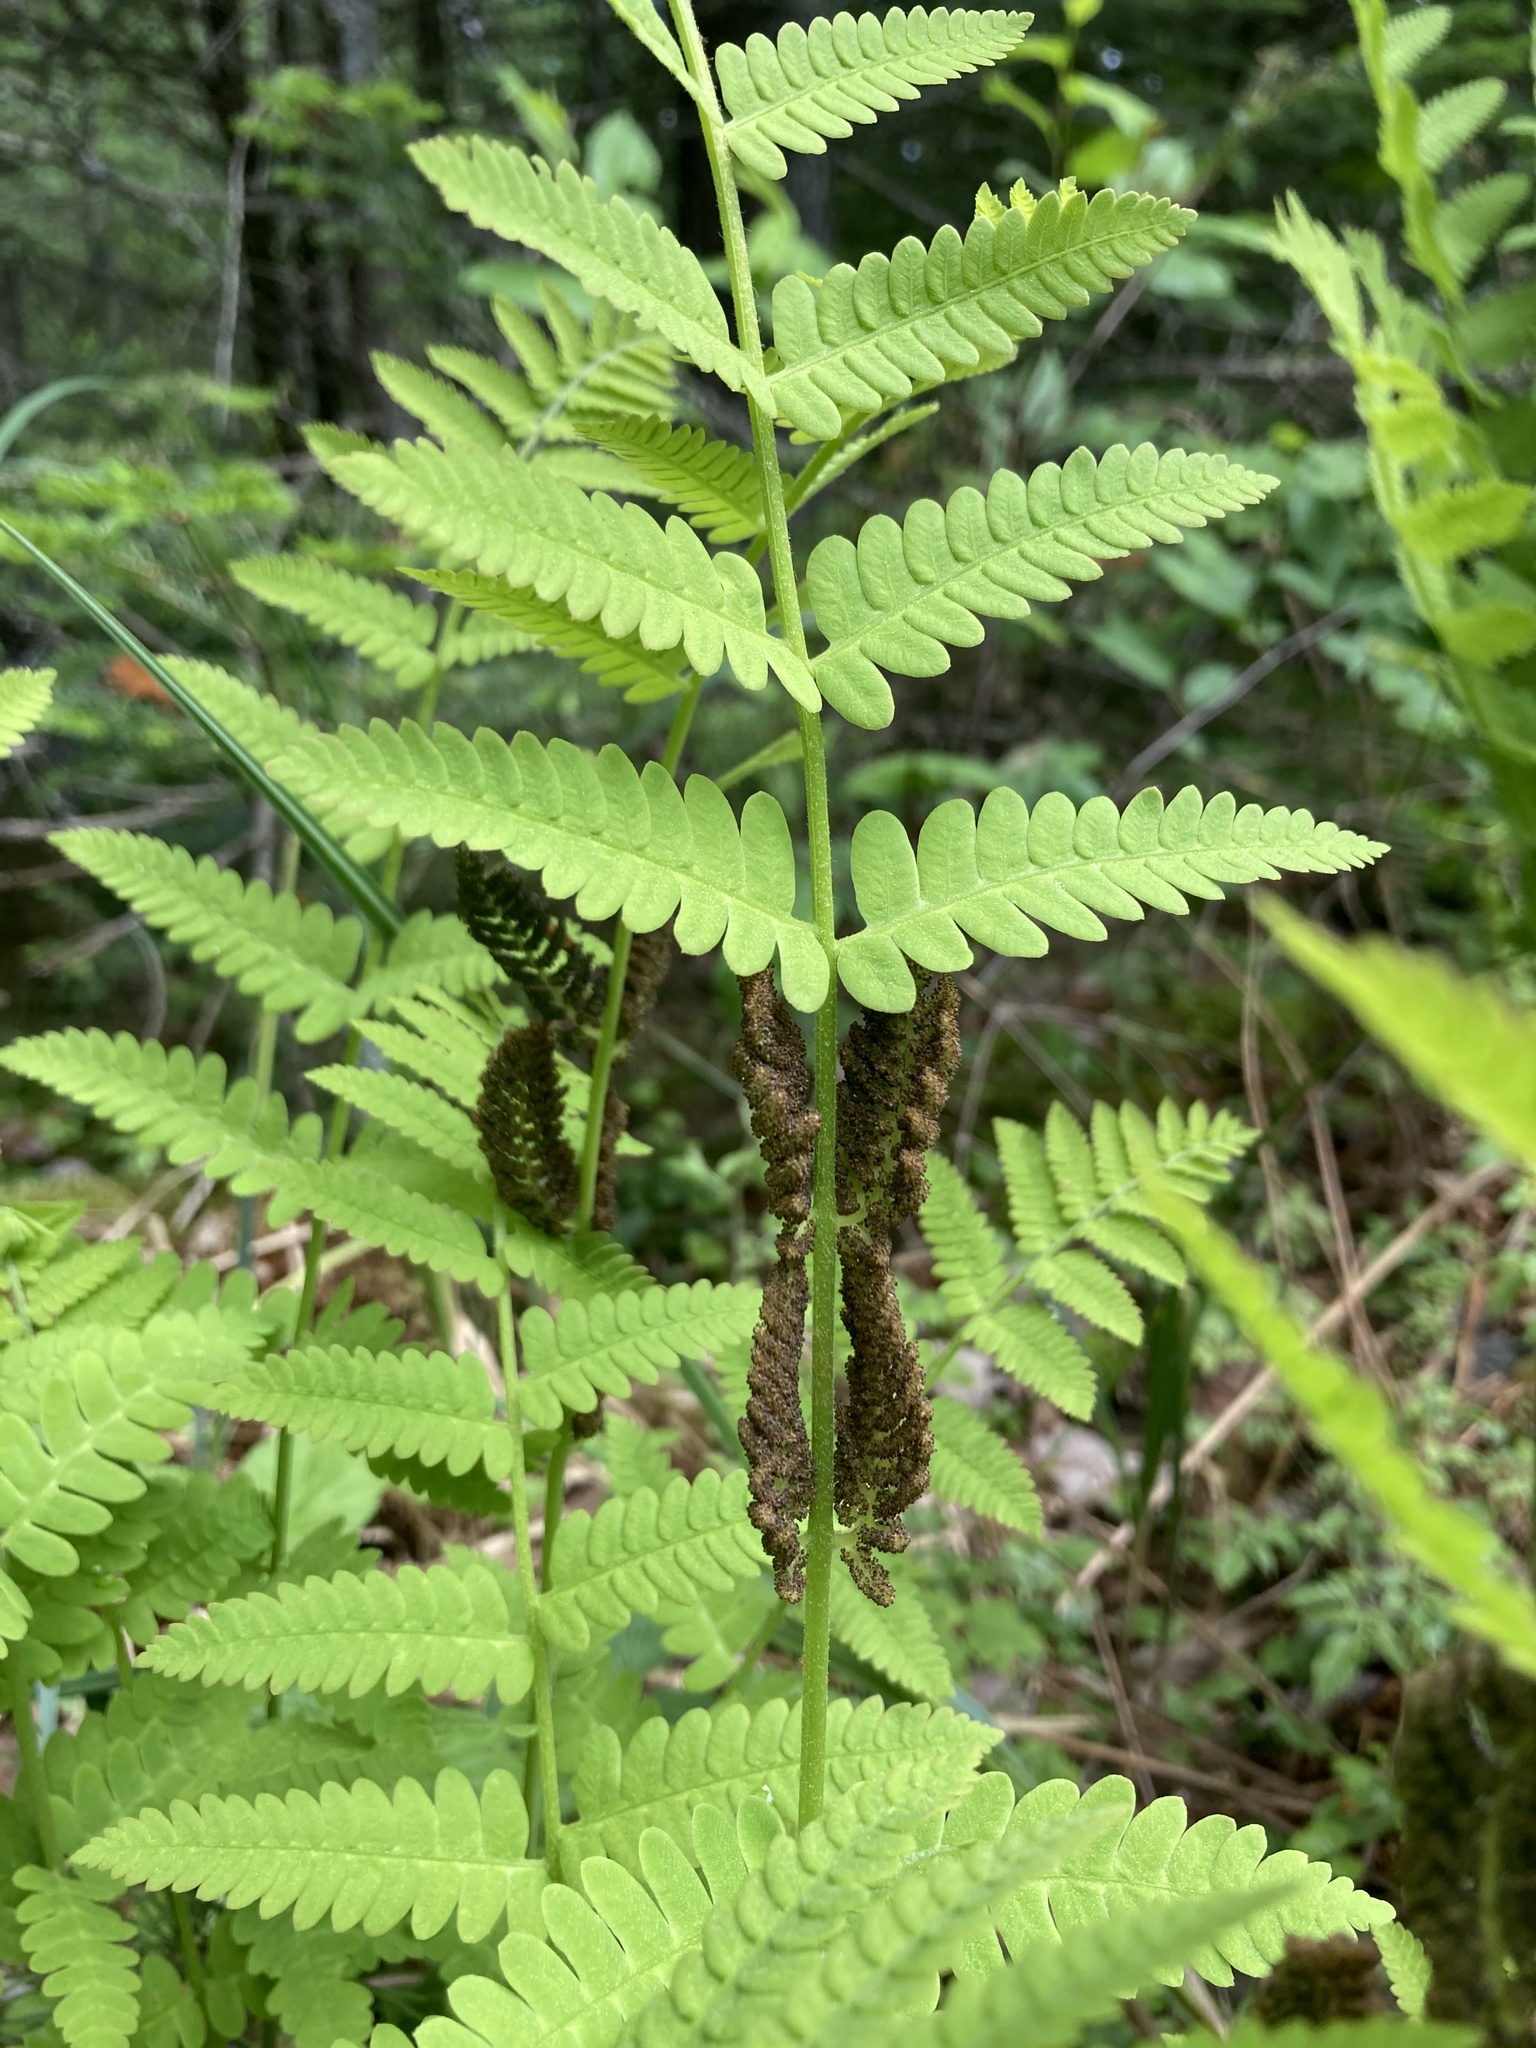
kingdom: Plantae
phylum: Tracheophyta
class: Polypodiopsida
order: Osmundales
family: Osmundaceae
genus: Claytosmunda
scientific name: Claytosmunda claytoniana
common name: Clayton's fern
